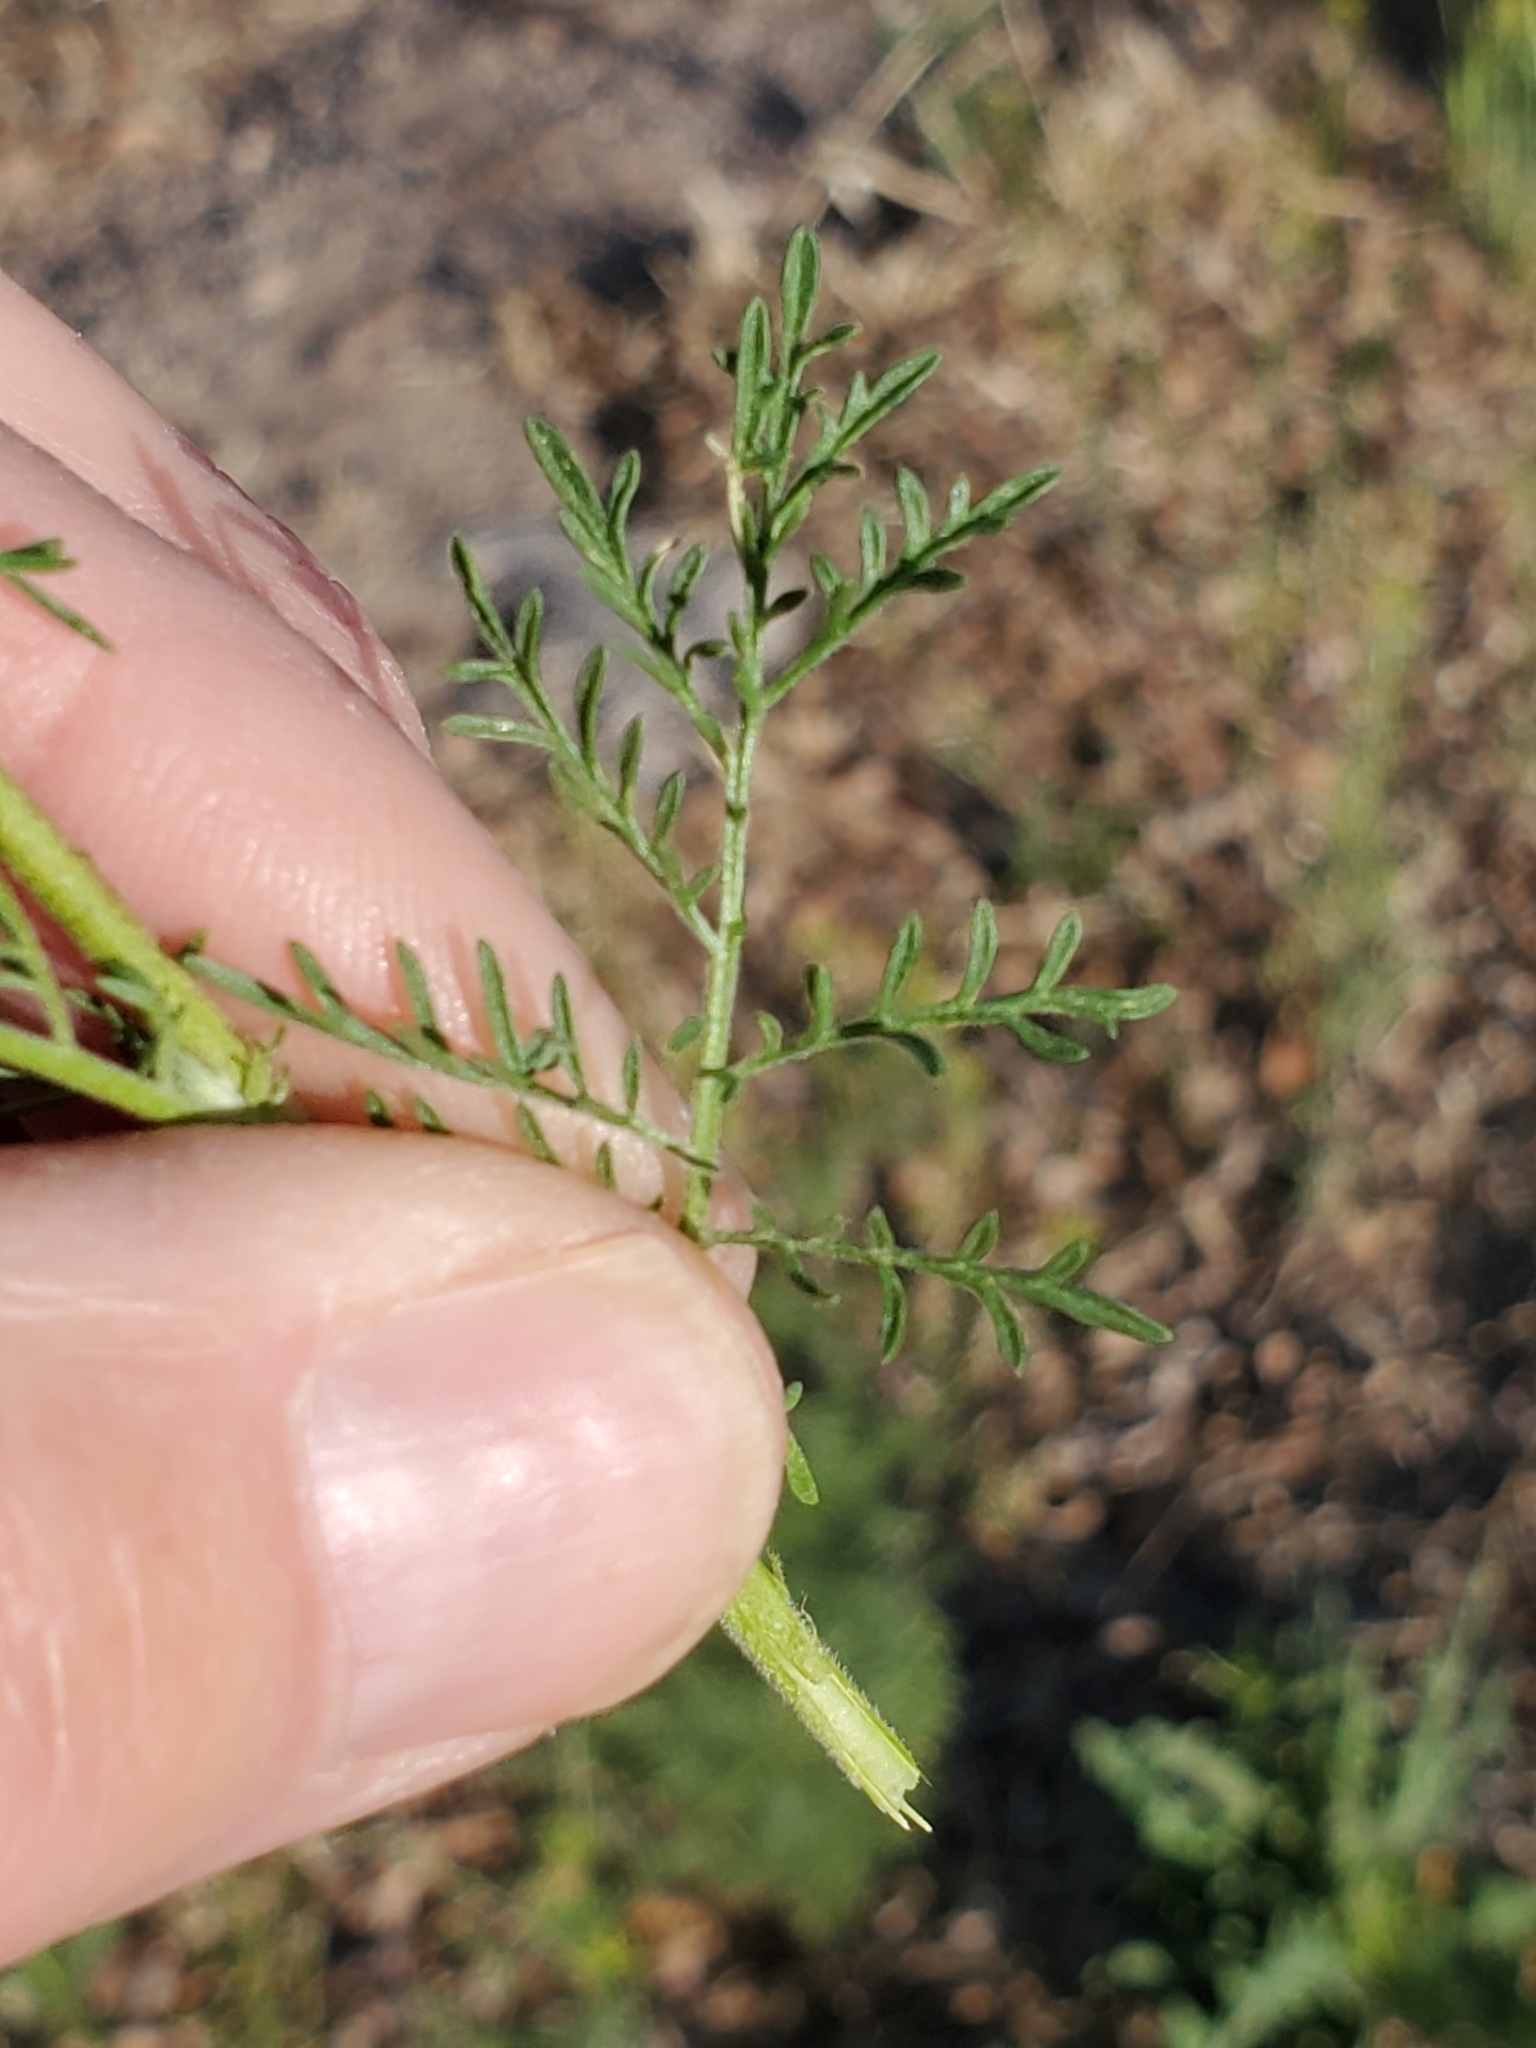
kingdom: Plantae
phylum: Tracheophyta
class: Magnoliopsida
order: Brassicales
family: Brassicaceae
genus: Descurainia
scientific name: Descurainia sophia
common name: Flixweed
